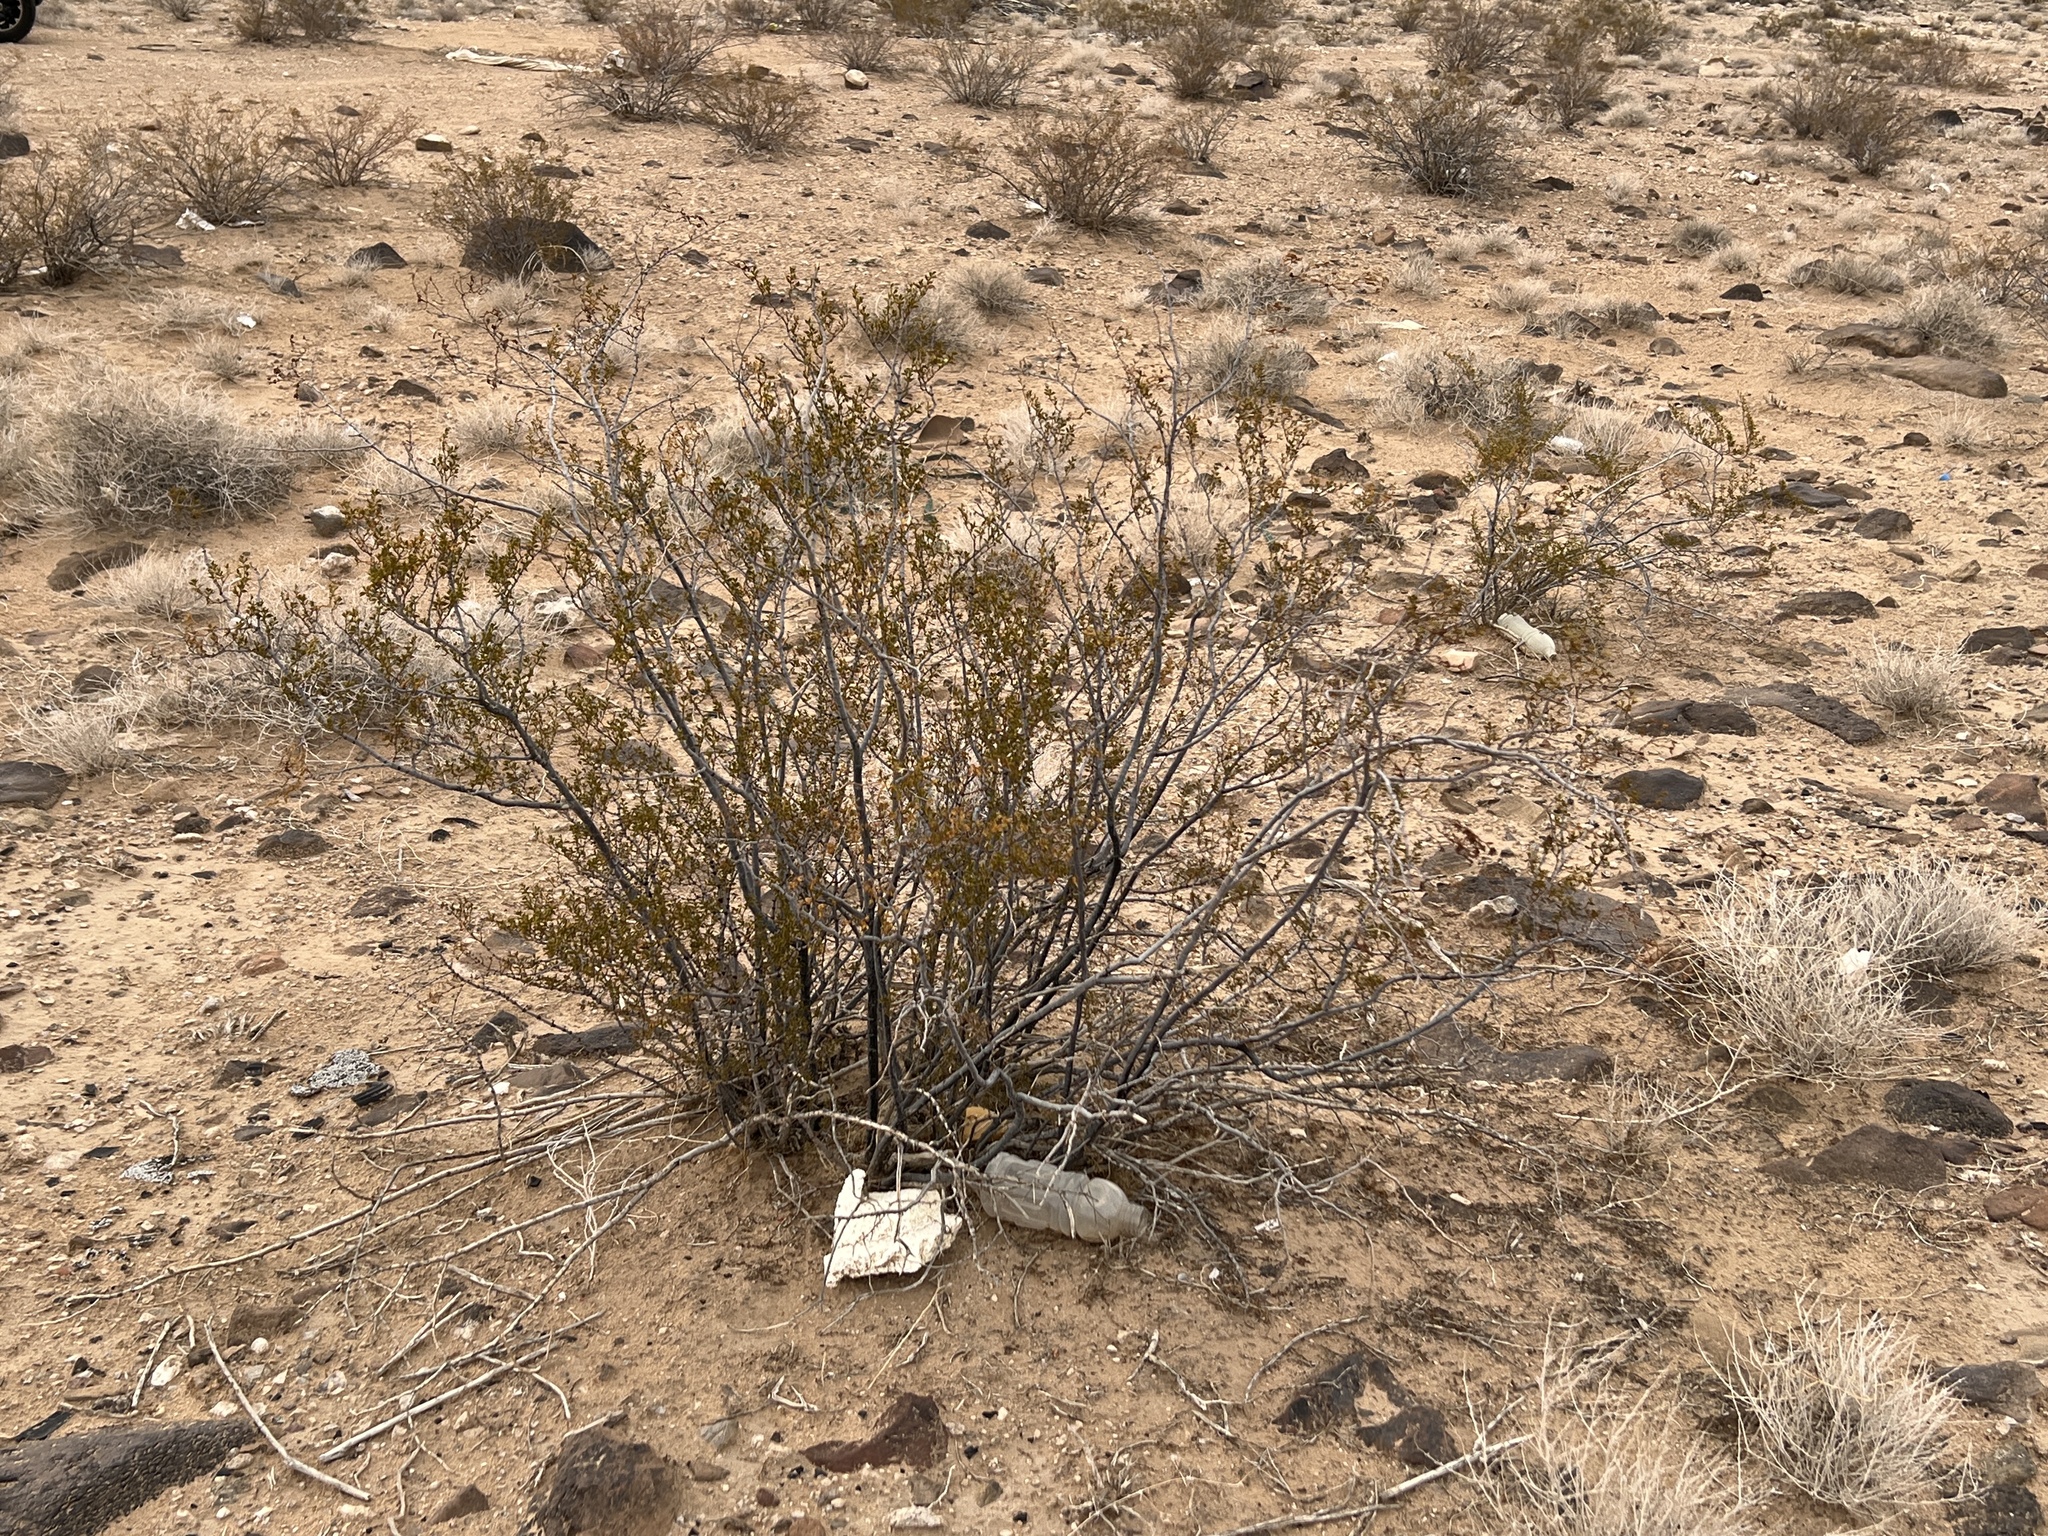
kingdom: Plantae
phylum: Tracheophyta
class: Magnoliopsida
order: Zygophyllales
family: Zygophyllaceae
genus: Larrea
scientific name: Larrea tridentata
